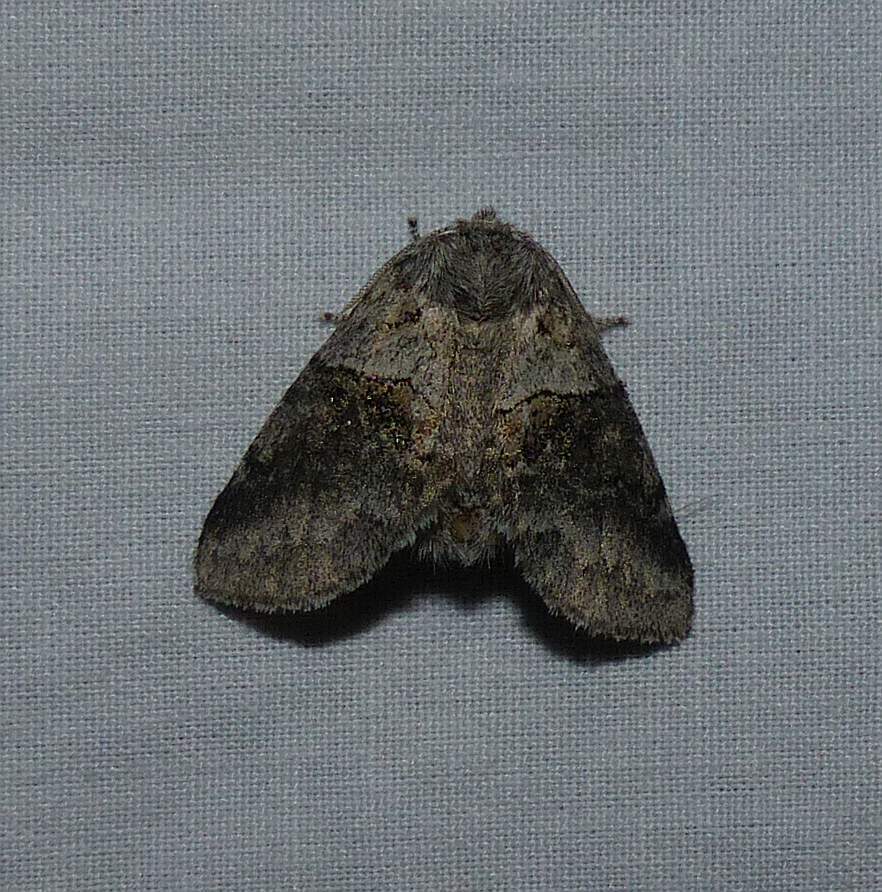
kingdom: Animalia
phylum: Arthropoda
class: Insecta
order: Lepidoptera
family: Notodontidae
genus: Gluphisia
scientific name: Gluphisia septentrionis
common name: Common gluphisia
